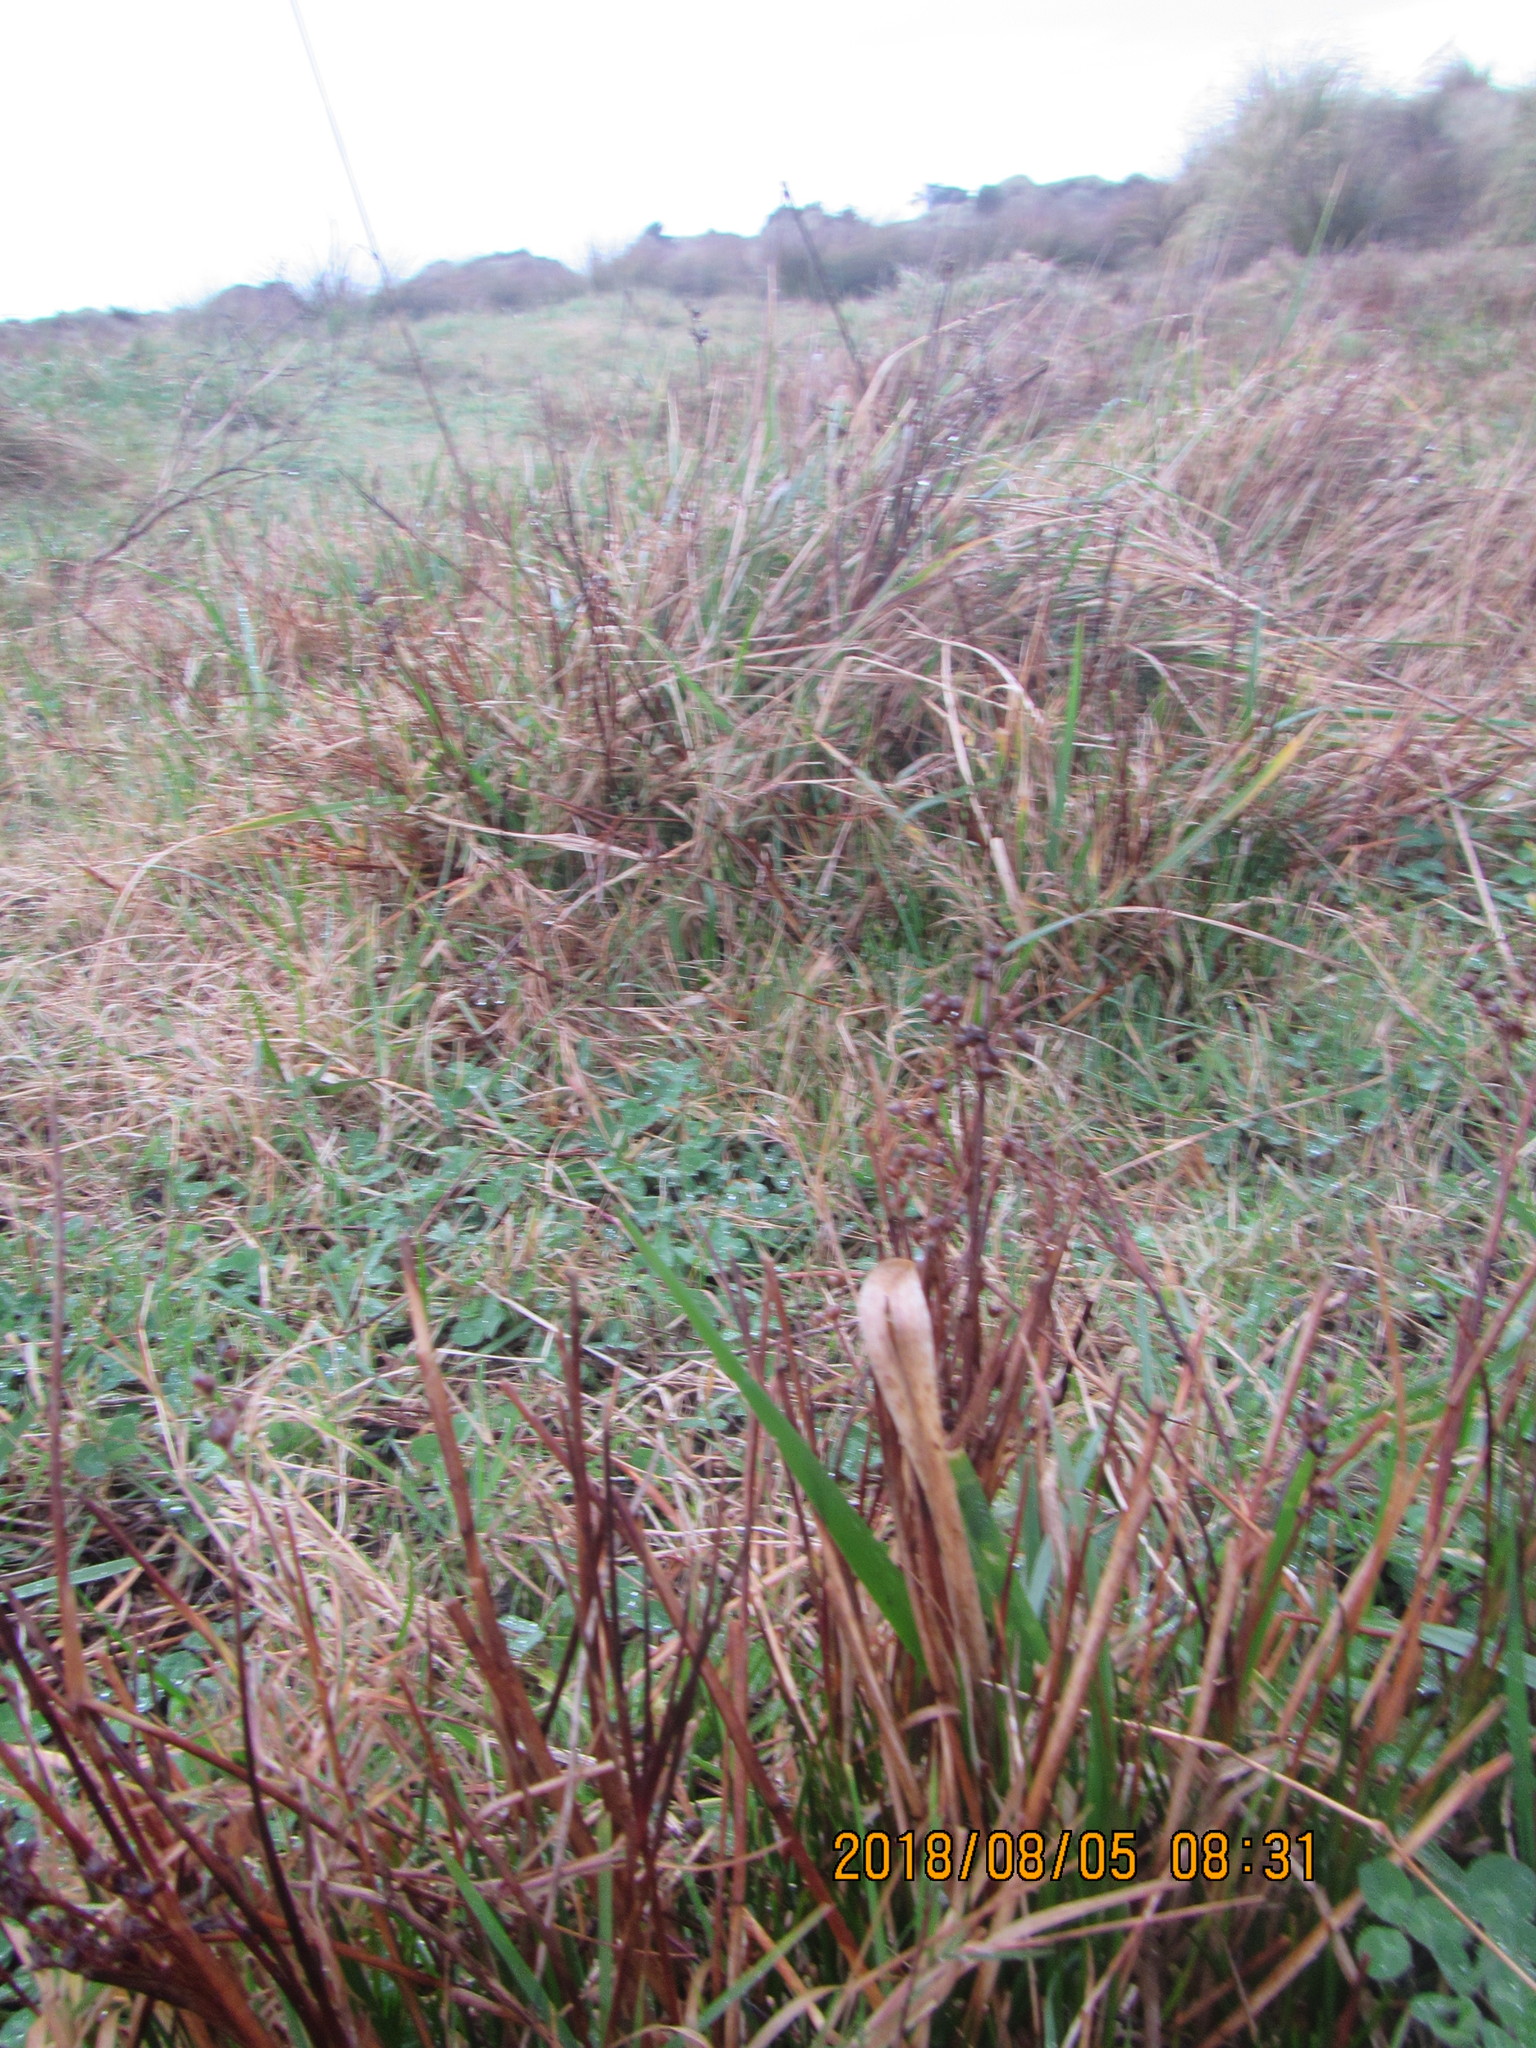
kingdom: Plantae
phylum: Tracheophyta
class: Liliopsida
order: Poales
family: Juncaceae
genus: Juncus
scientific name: Juncus articulatus
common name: Jointed rush
